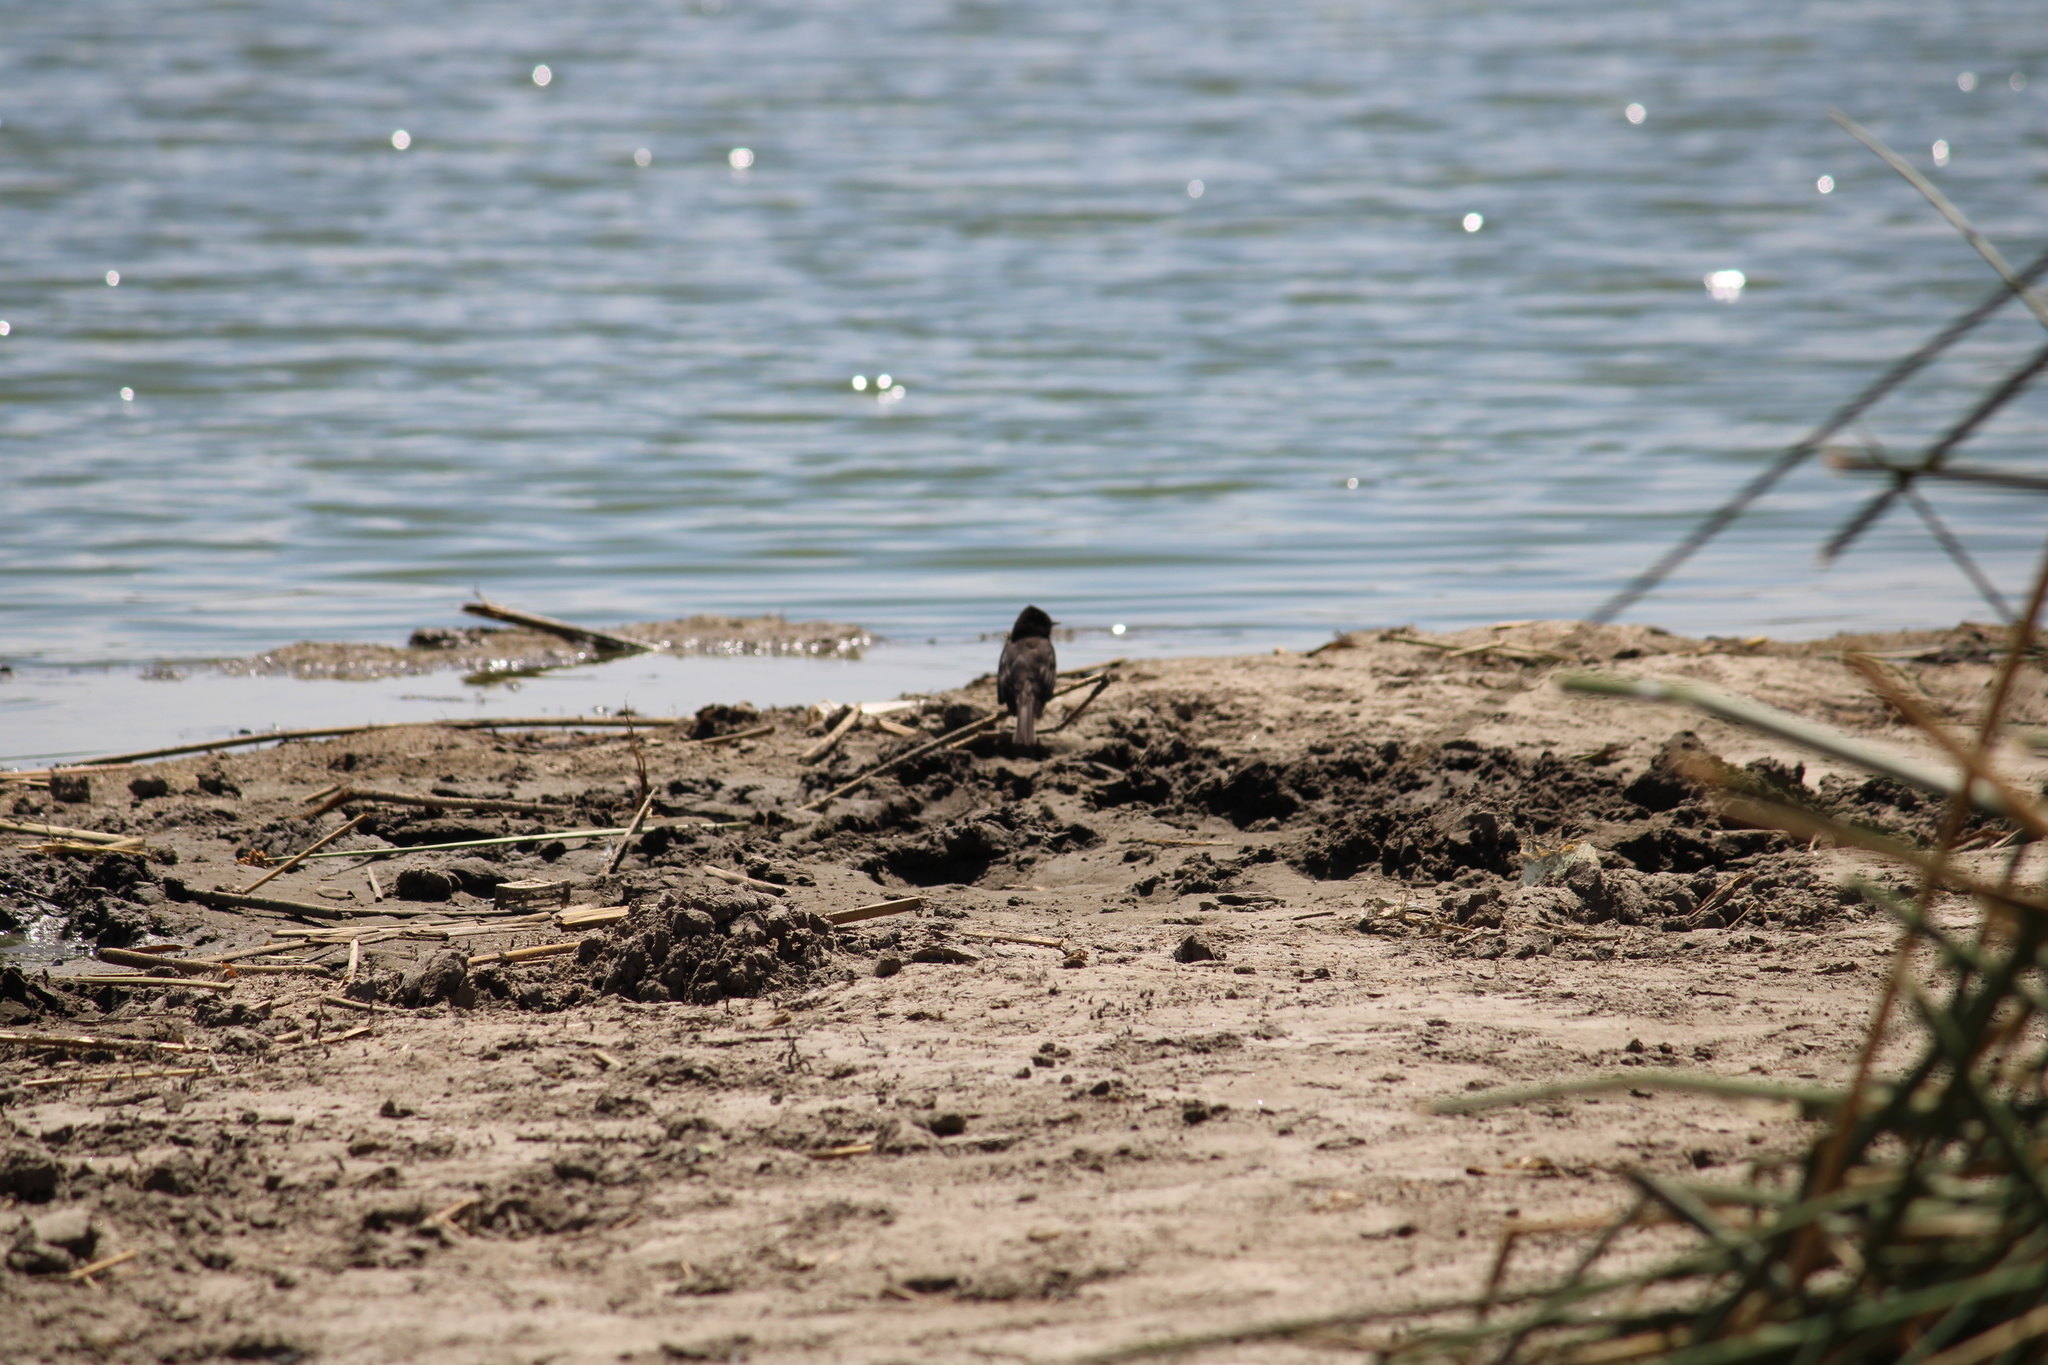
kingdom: Animalia
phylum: Chordata
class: Aves
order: Passeriformes
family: Tyrannidae
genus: Sayornis
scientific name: Sayornis nigricans
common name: Black phoebe
